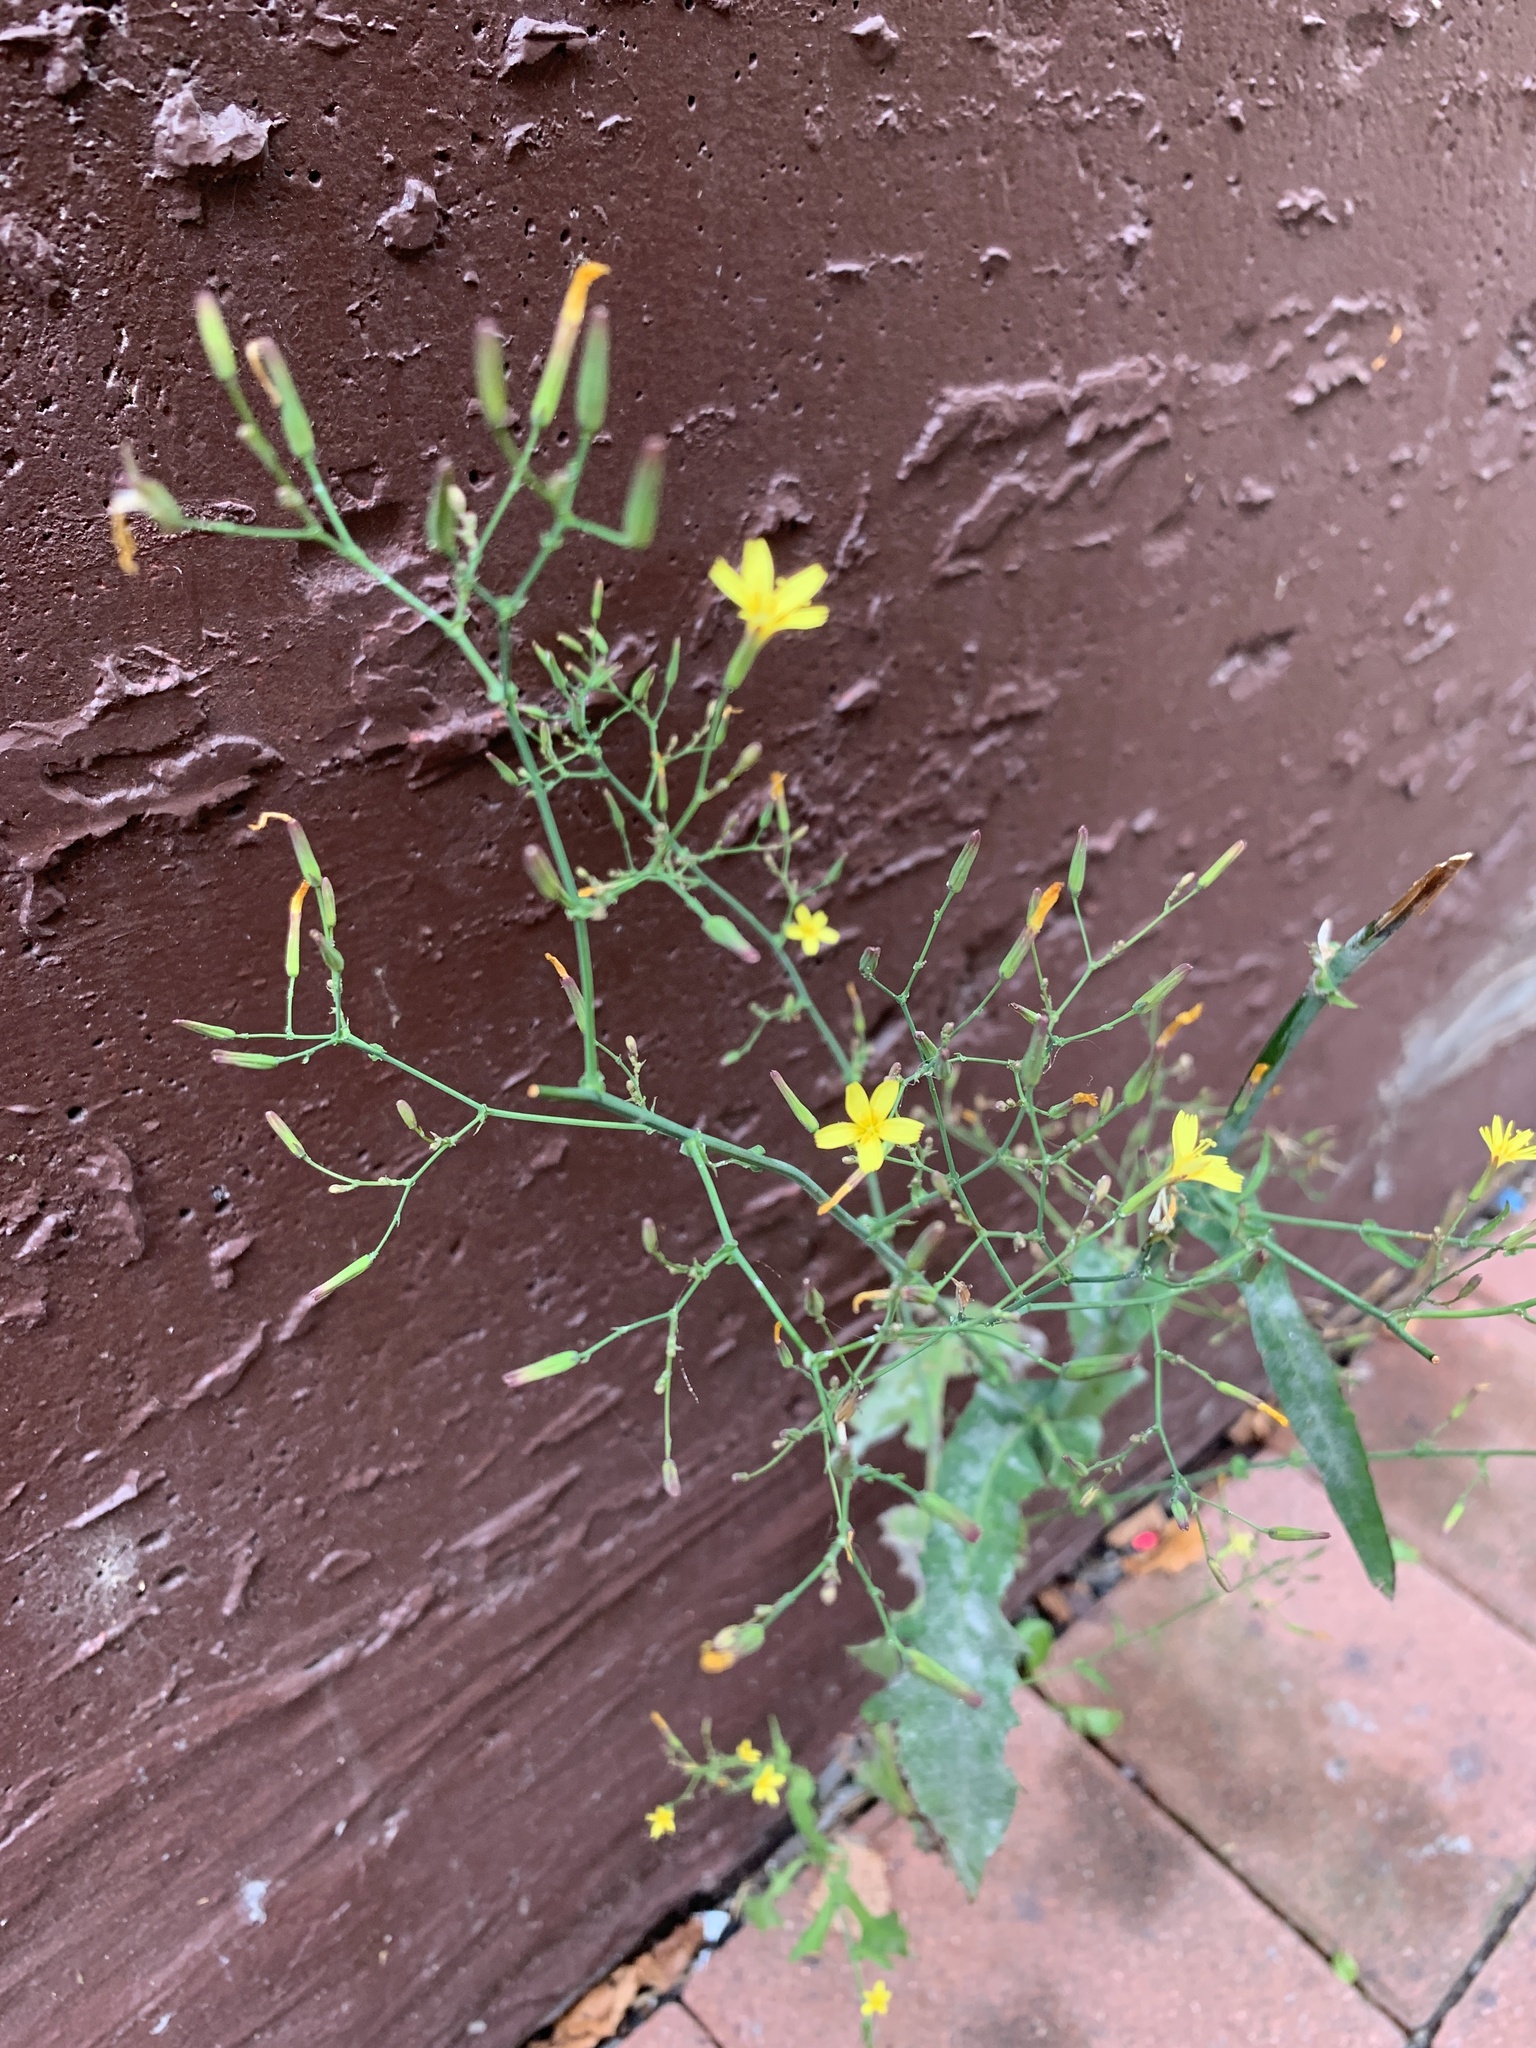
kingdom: Plantae
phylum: Tracheophyta
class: Magnoliopsida
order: Asterales
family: Asteraceae
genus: Mycelis
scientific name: Mycelis muralis
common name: Wall lettuce
